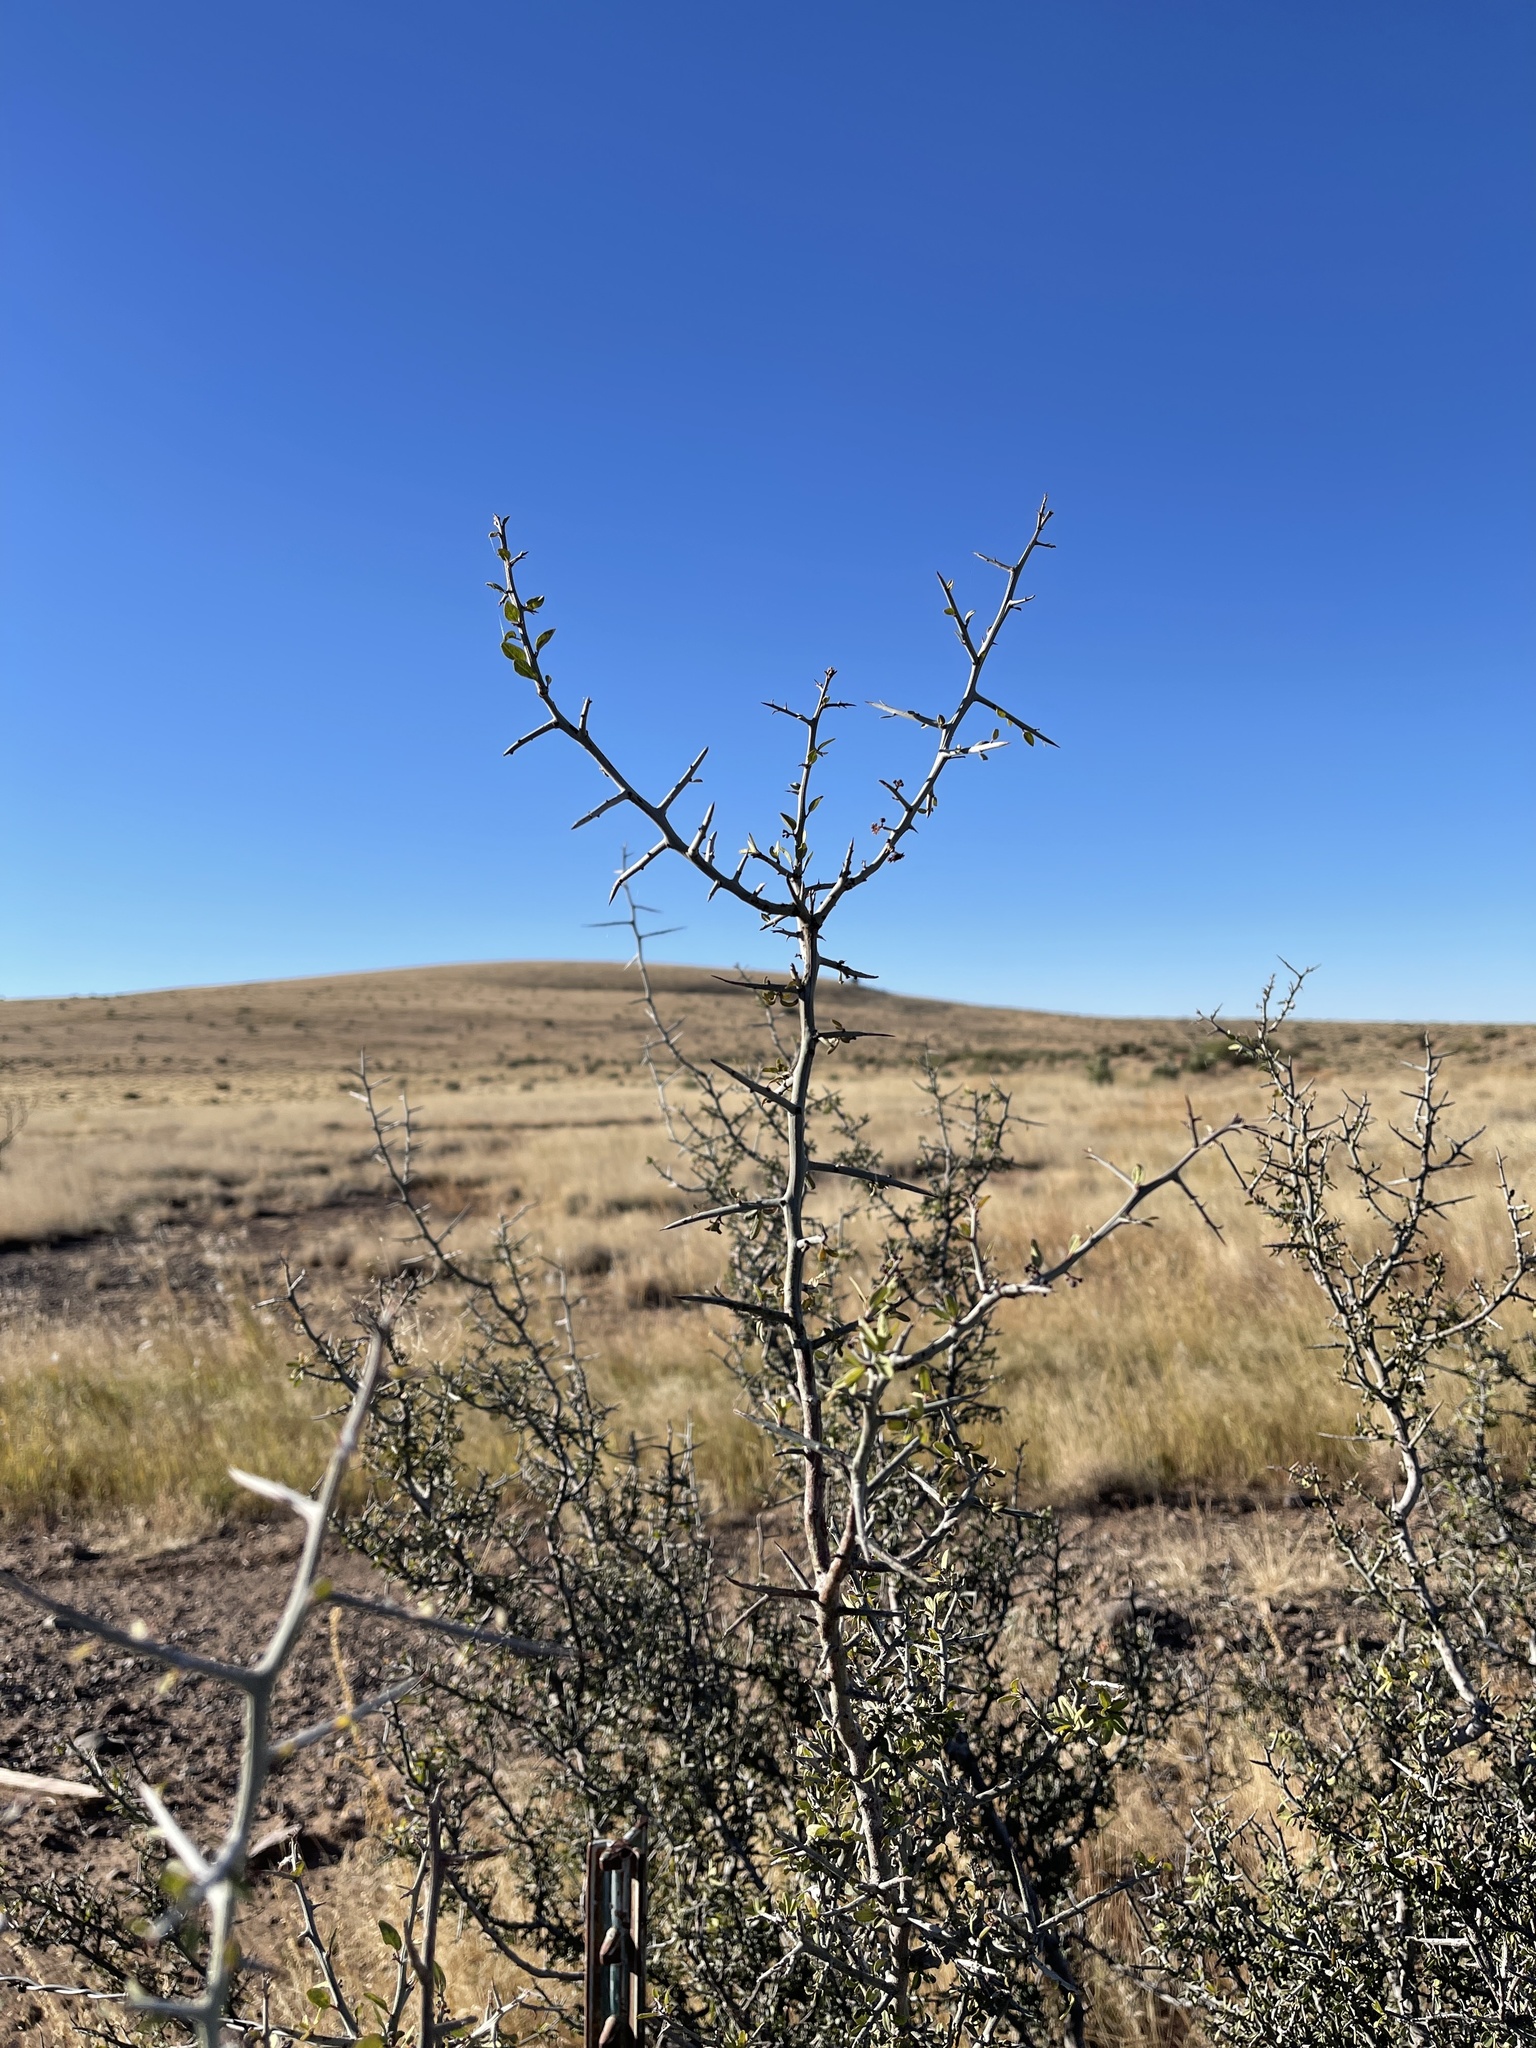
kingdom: Plantae
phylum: Tracheophyta
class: Magnoliopsida
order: Rosales
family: Rhamnaceae
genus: Sarcomphalus
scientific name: Sarcomphalus obtusifolius
